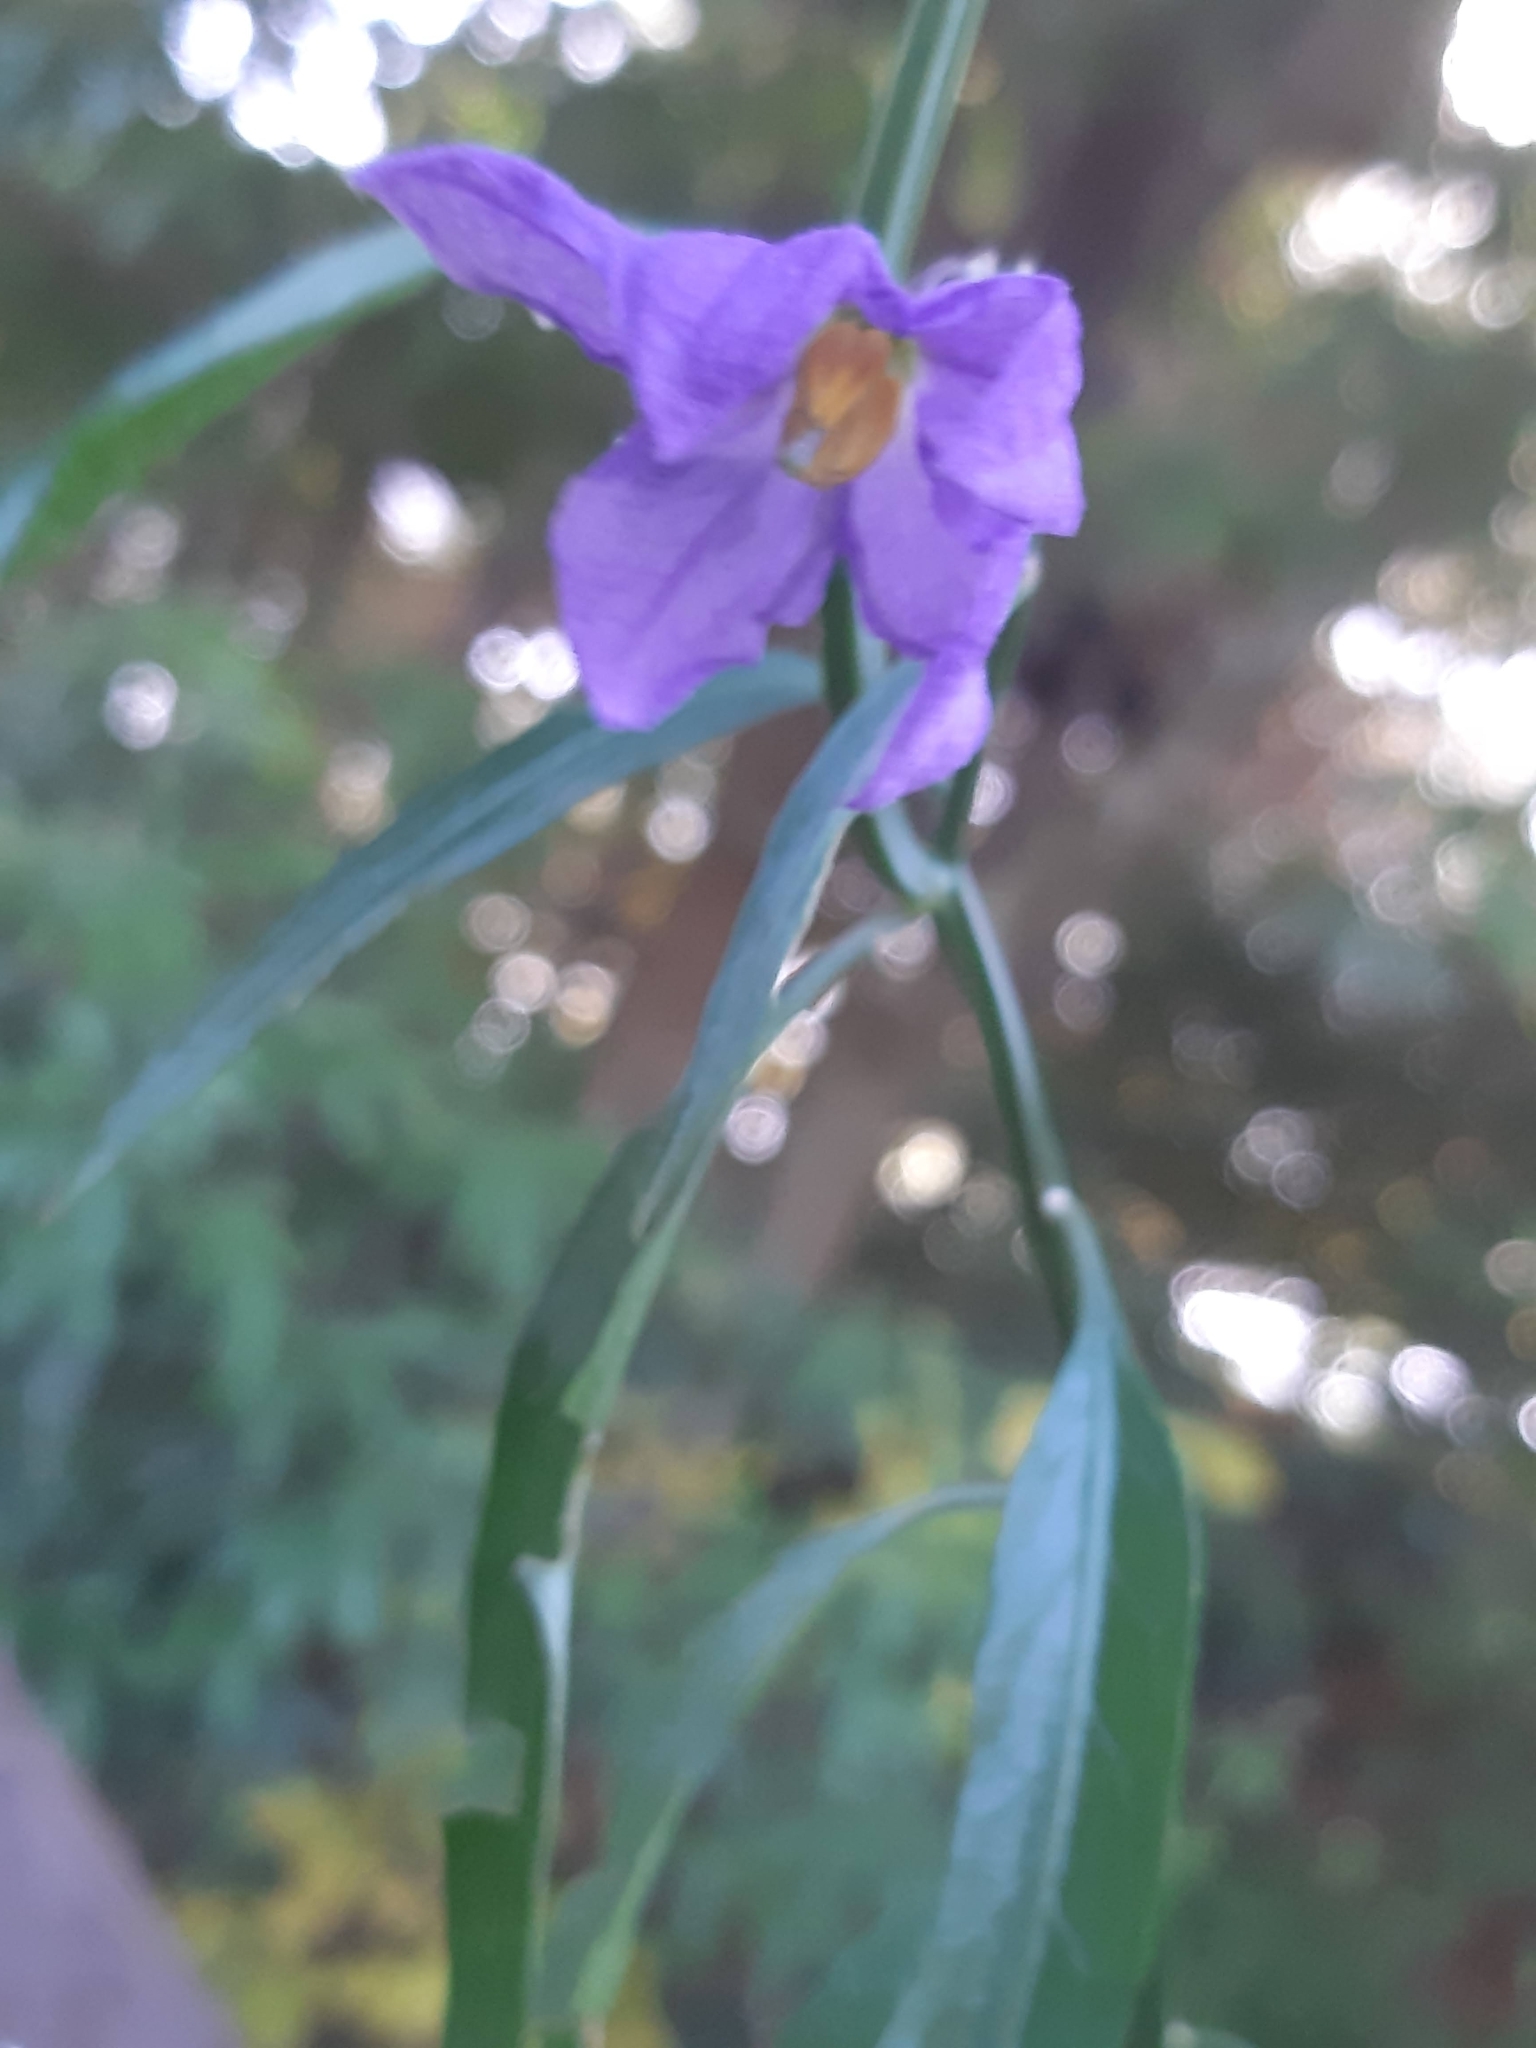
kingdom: Plantae
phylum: Tracheophyta
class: Magnoliopsida
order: Solanales
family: Solanaceae
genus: Solanum
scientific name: Solanum amygdalifolium
